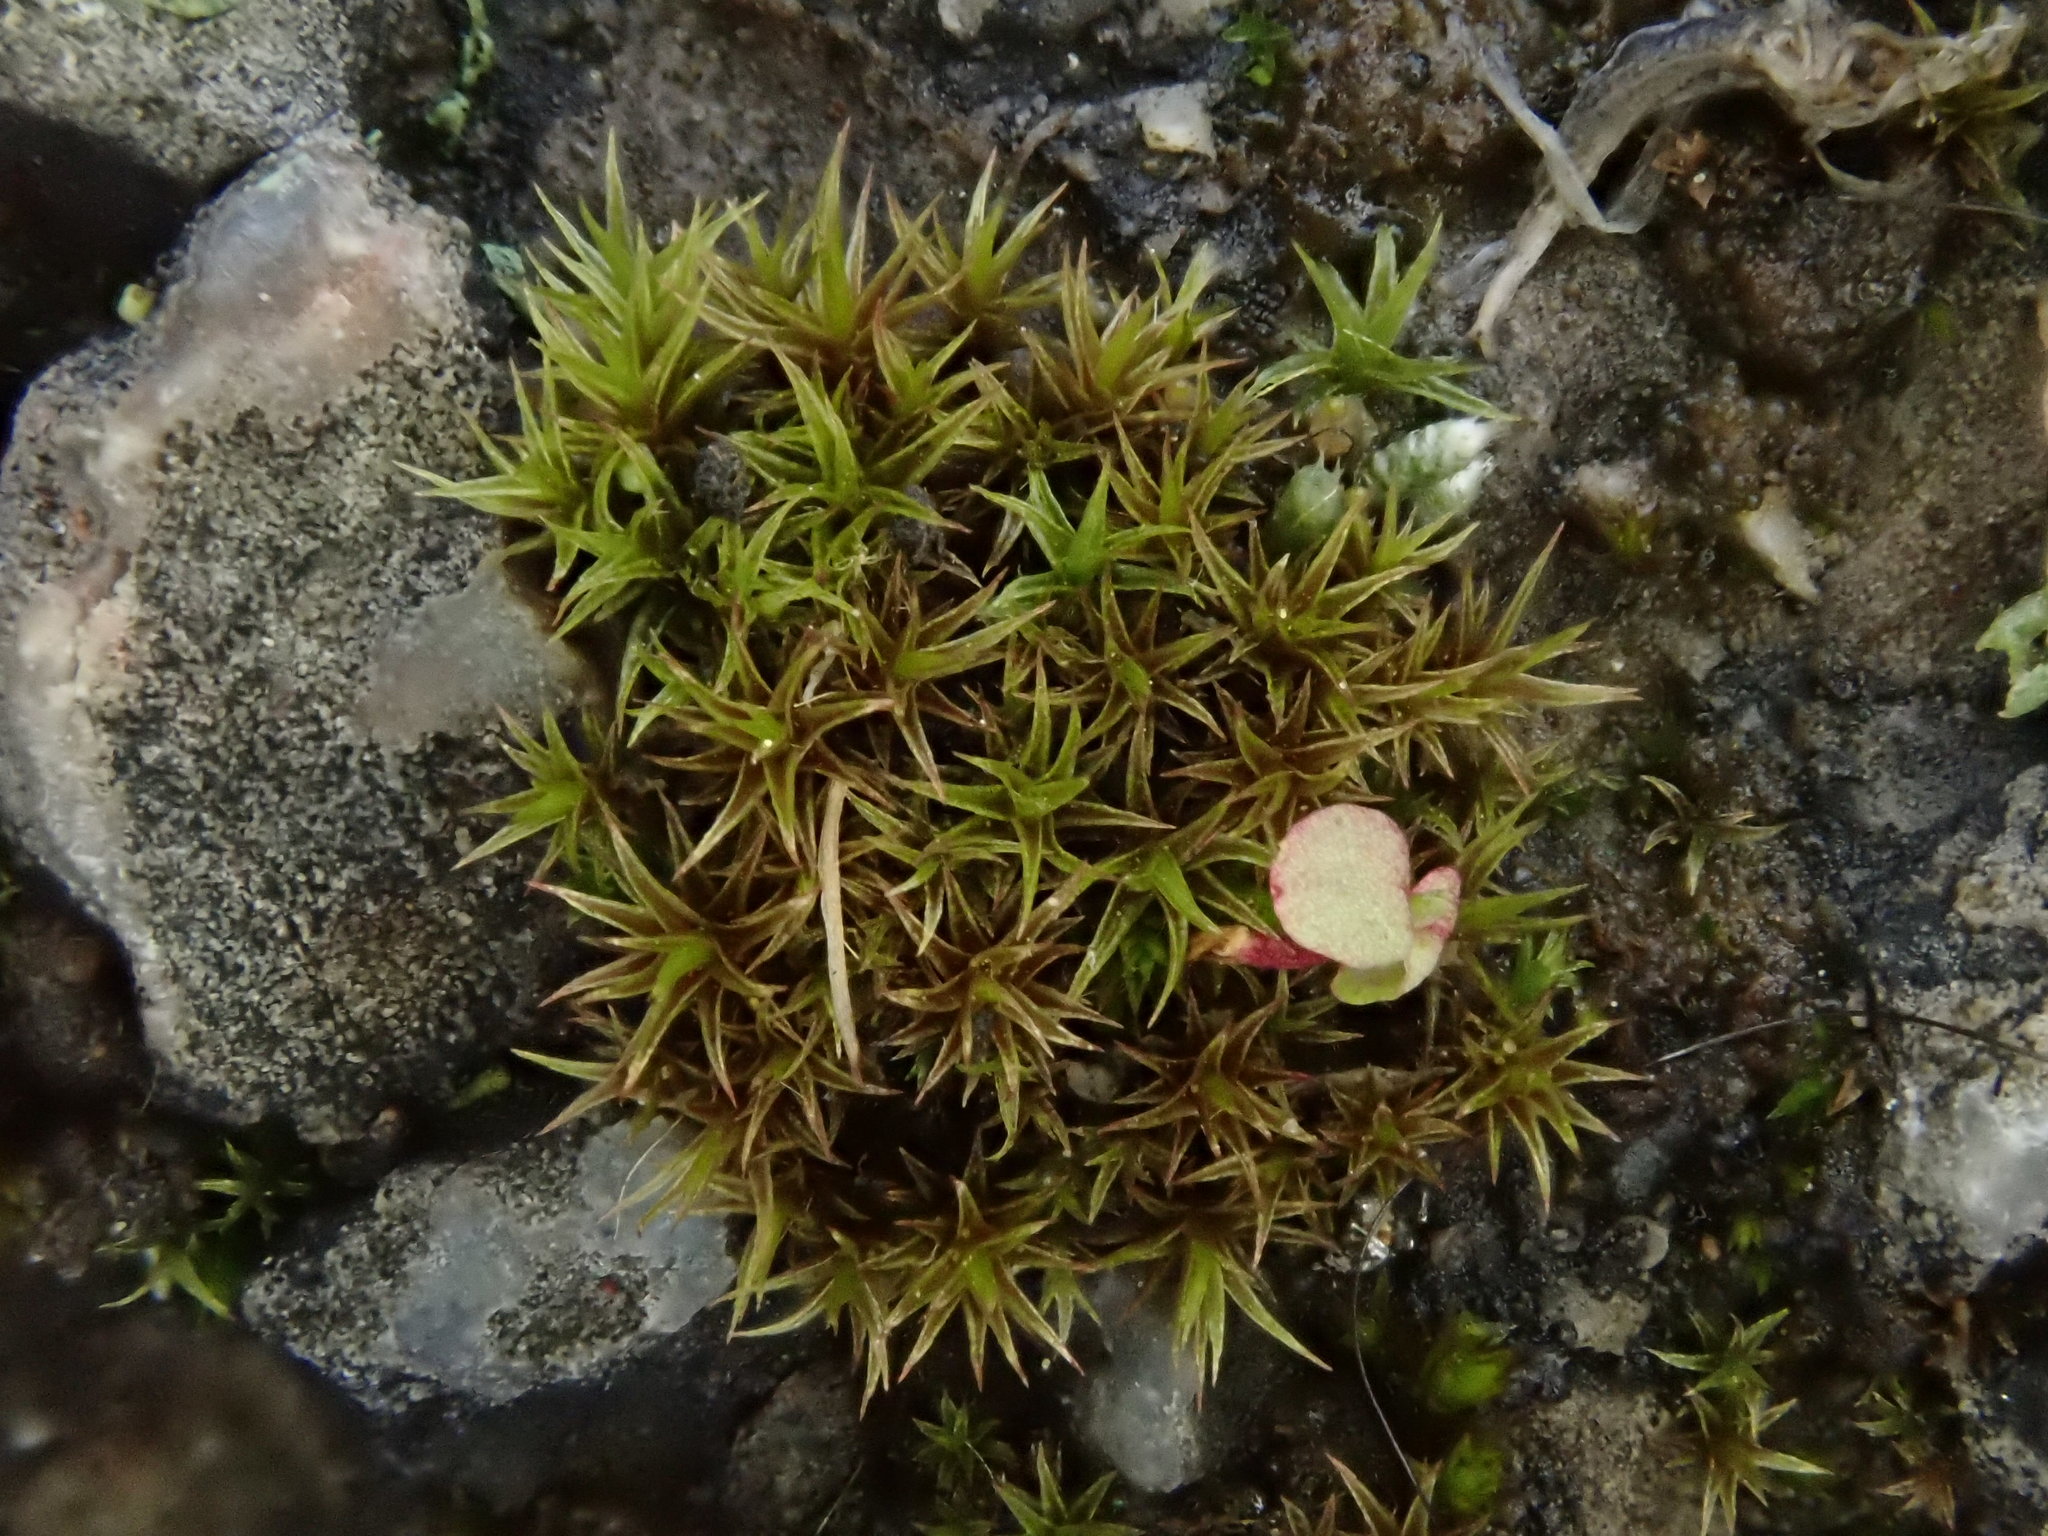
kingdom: Plantae
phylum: Bryophyta
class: Bryopsida
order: Dicranales
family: Ditrichaceae
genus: Ceratodon
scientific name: Ceratodon purpureus
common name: Redshank
